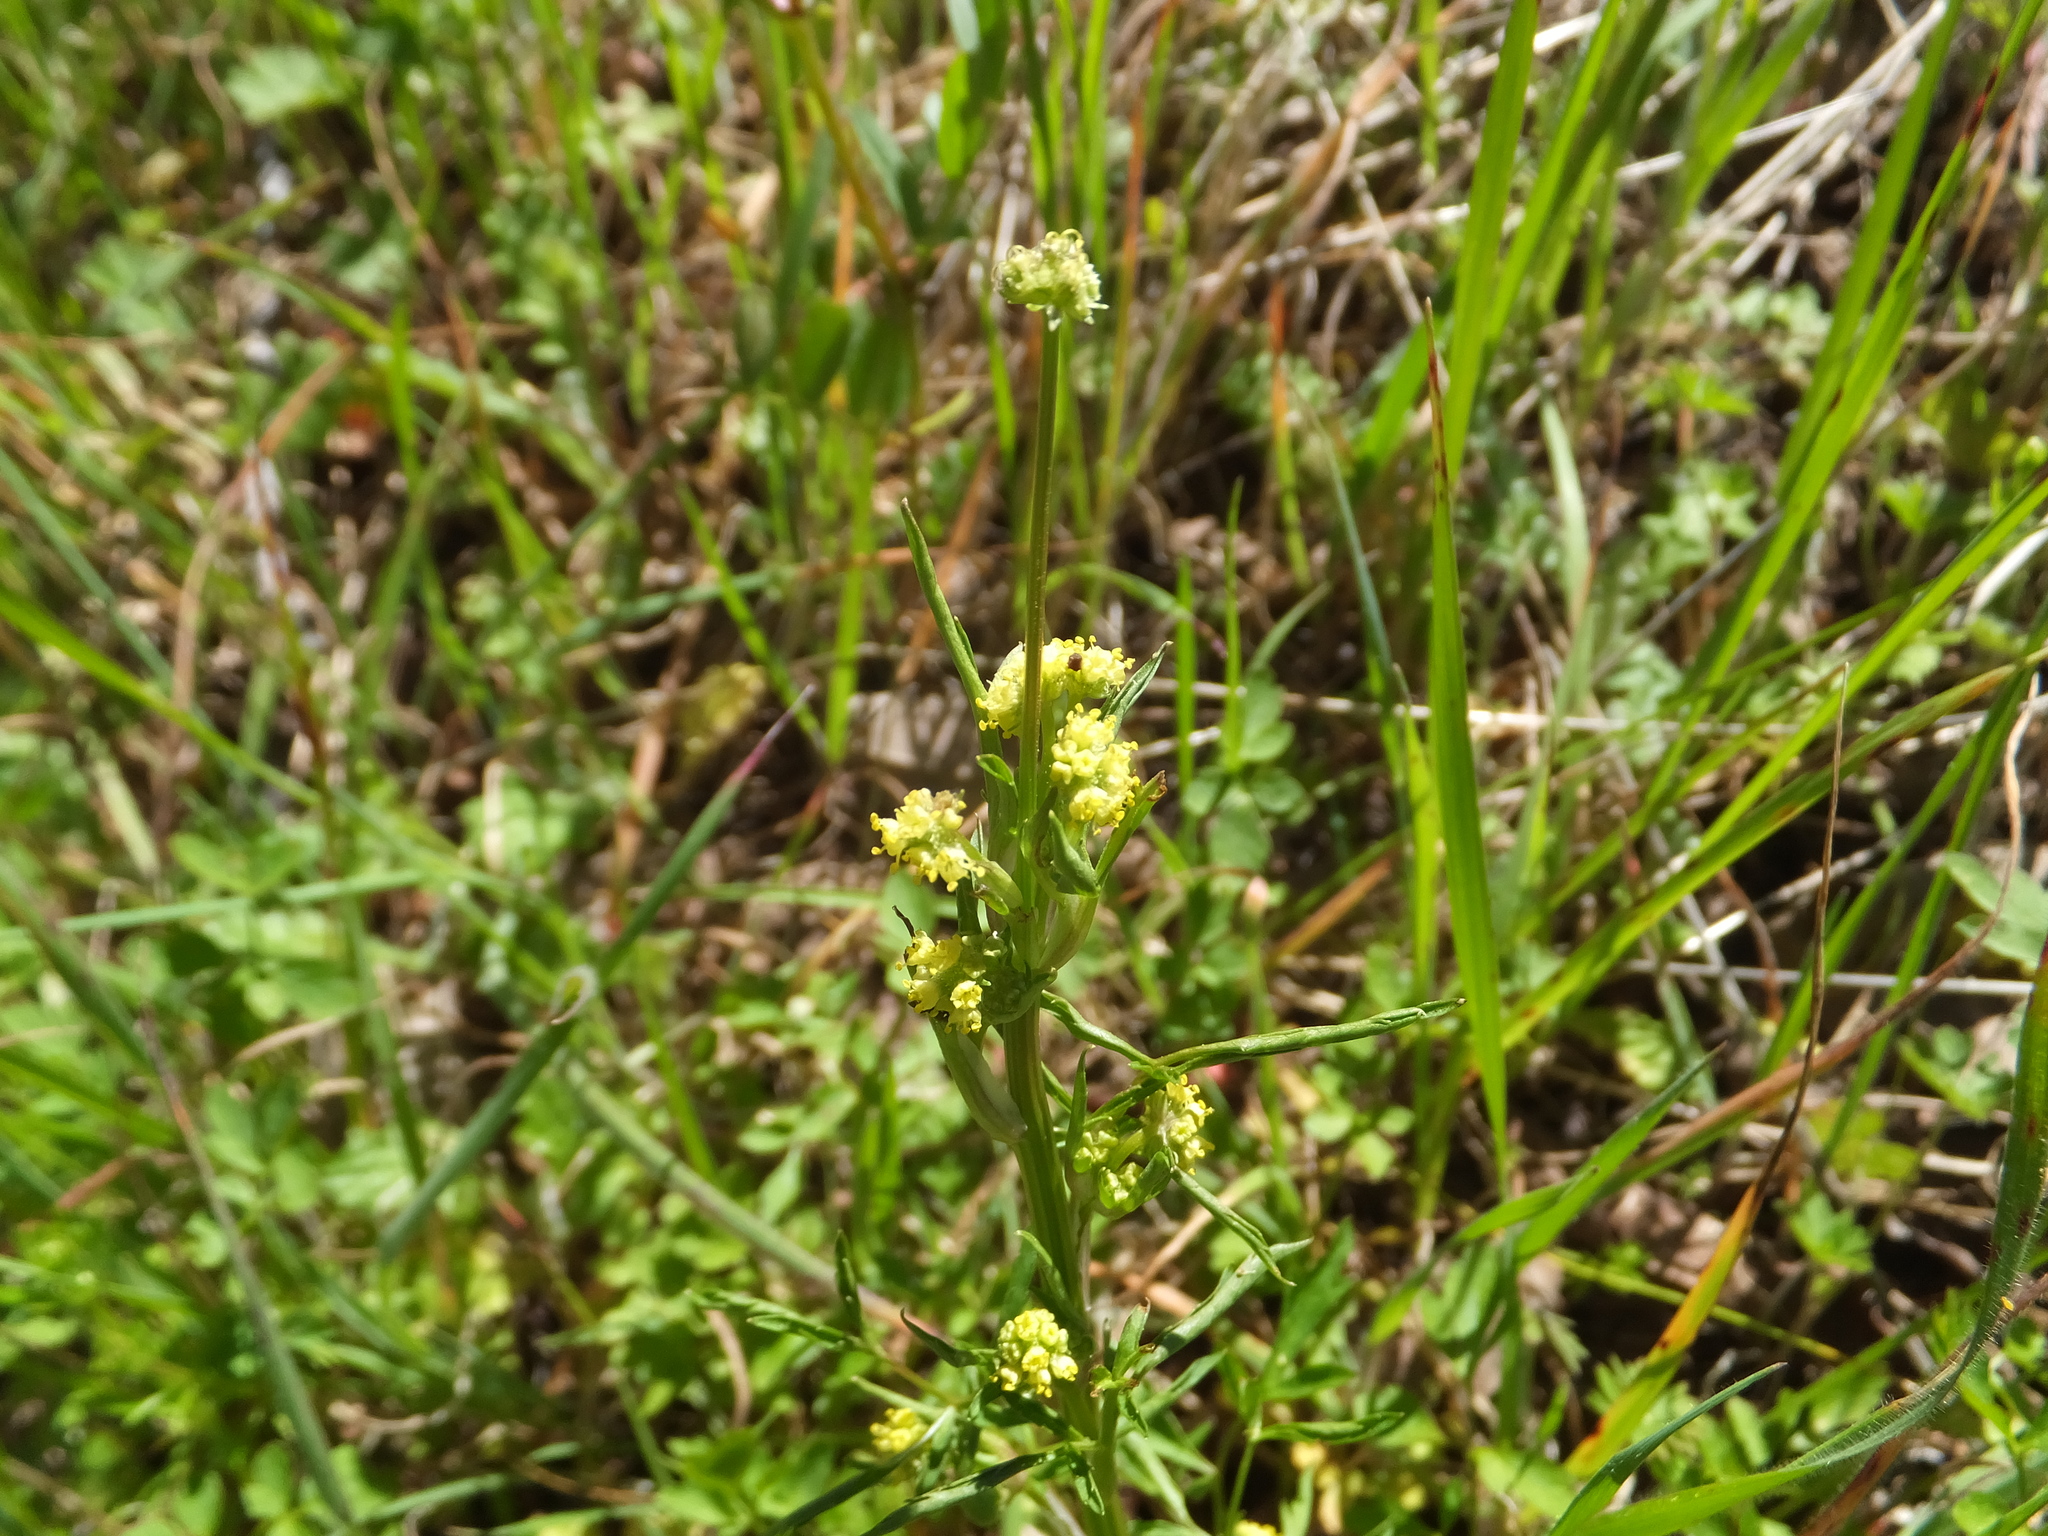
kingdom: Plantae
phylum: Tracheophyta
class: Magnoliopsida
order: Apiales
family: Apiaceae
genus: Sanicula
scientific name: Sanicula bipinnata
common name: Poison sanicle
